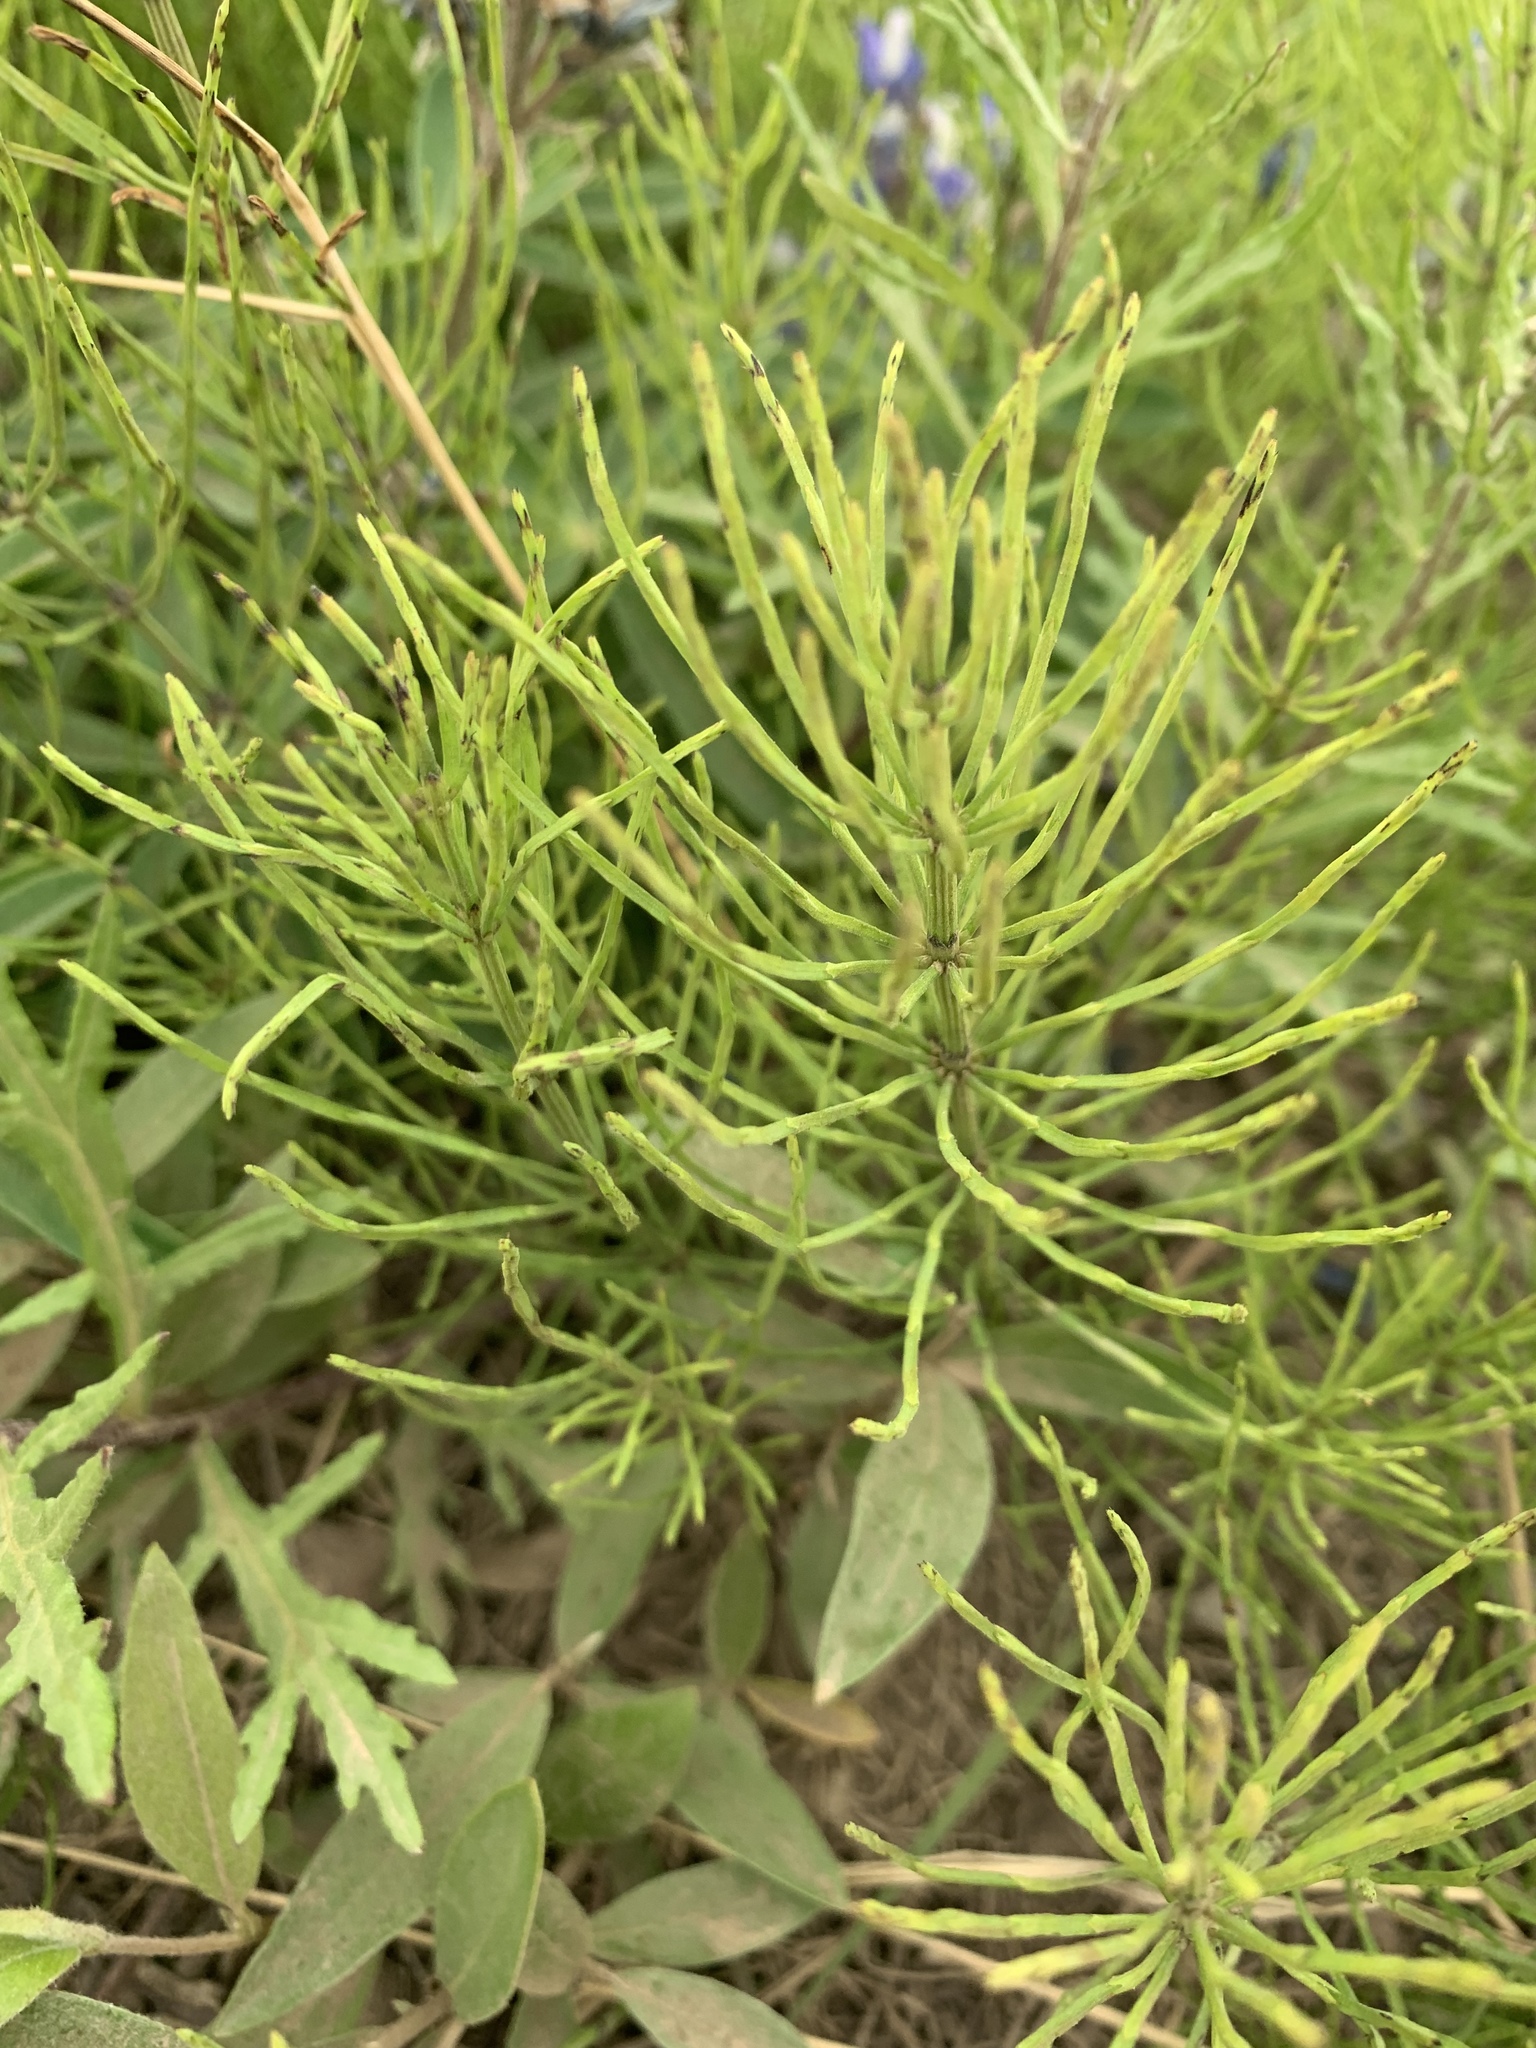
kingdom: Plantae
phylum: Tracheophyta
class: Polypodiopsida
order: Equisetales
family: Equisetaceae
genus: Equisetum
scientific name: Equisetum arvense
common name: Field horsetail
